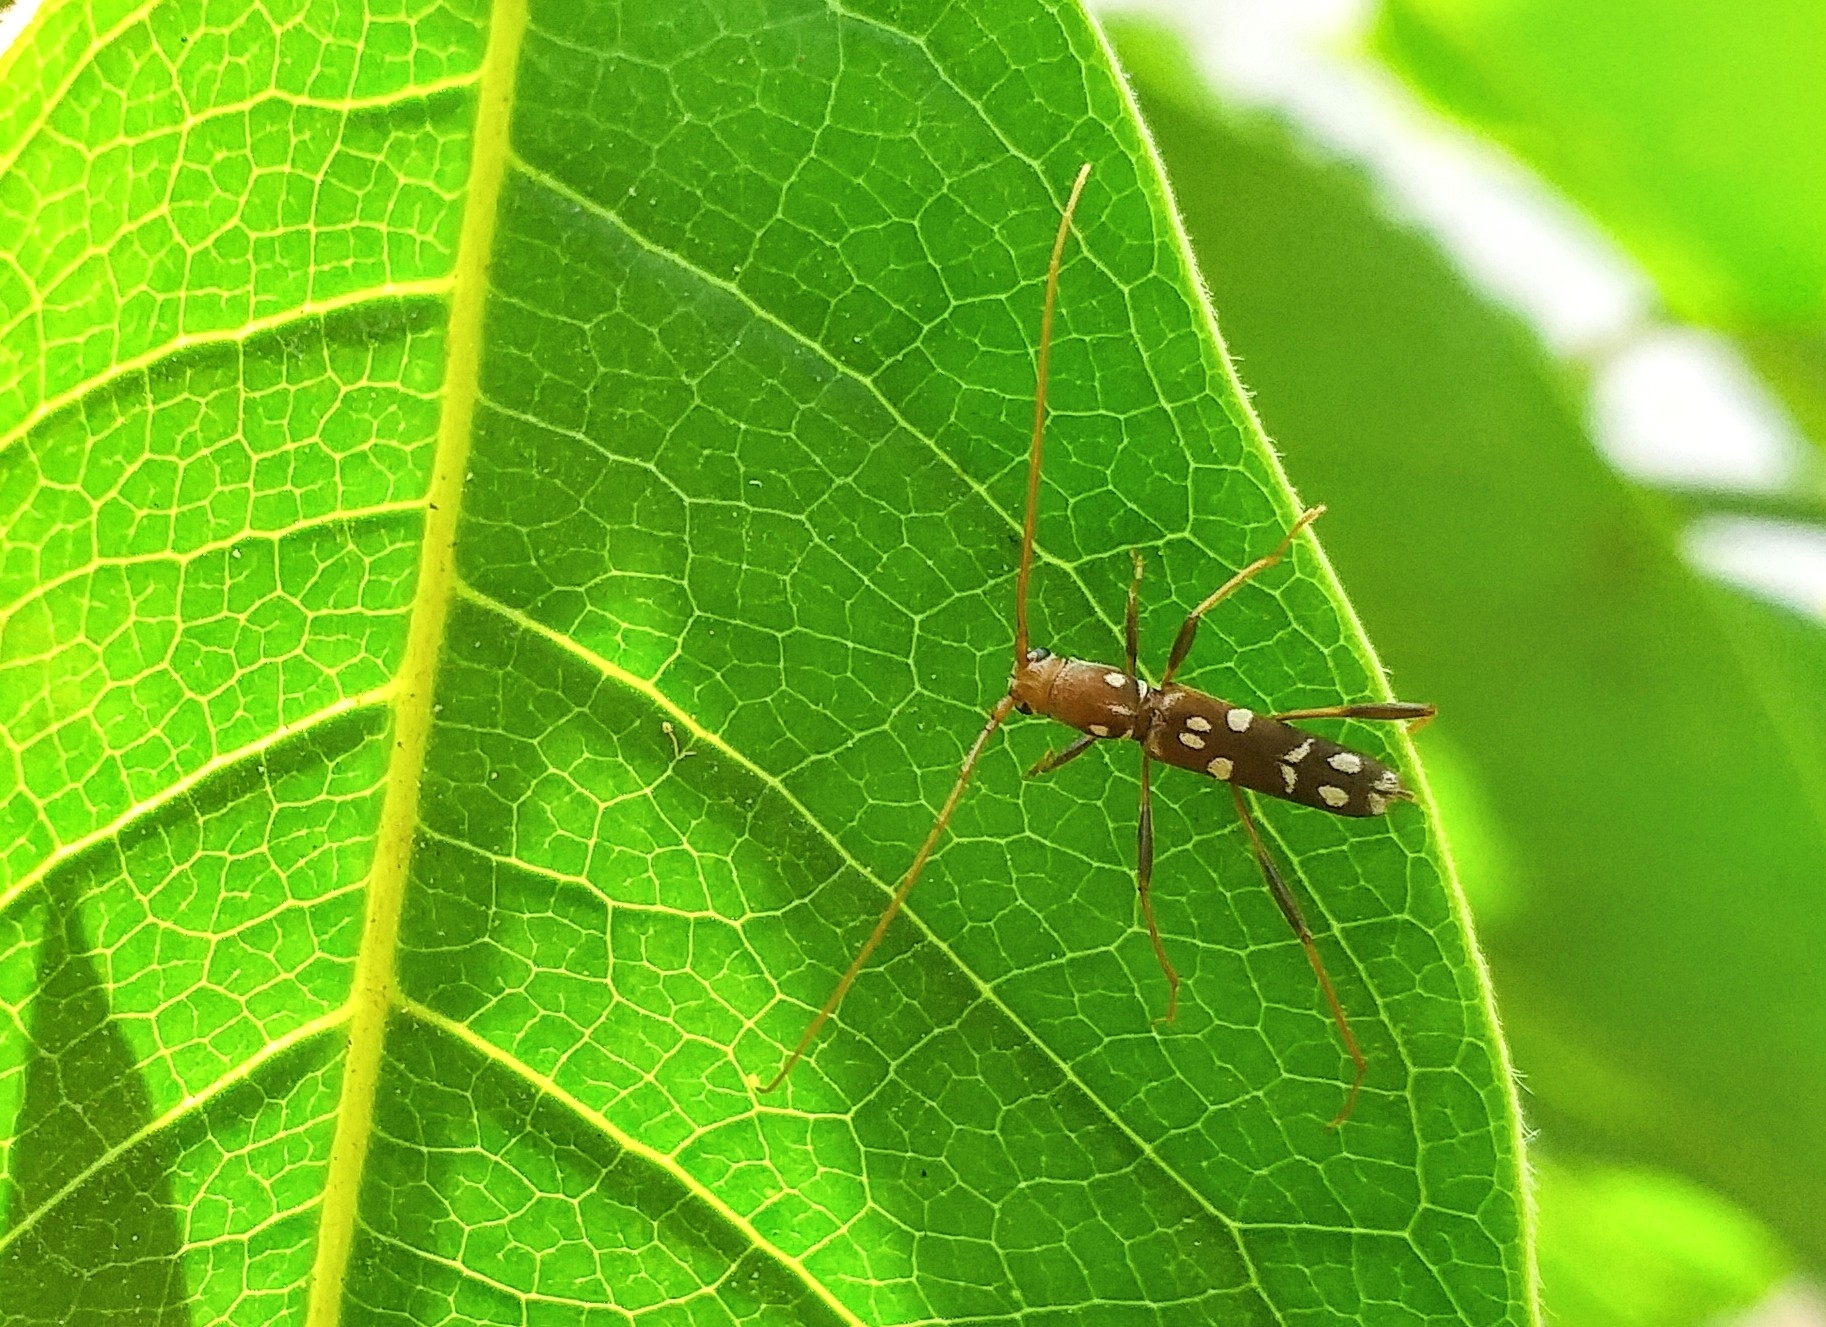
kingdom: Animalia
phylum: Arthropoda
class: Insecta
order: Coleoptera
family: Cerambycidae
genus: Clytocera
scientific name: Clytocera chionospila
